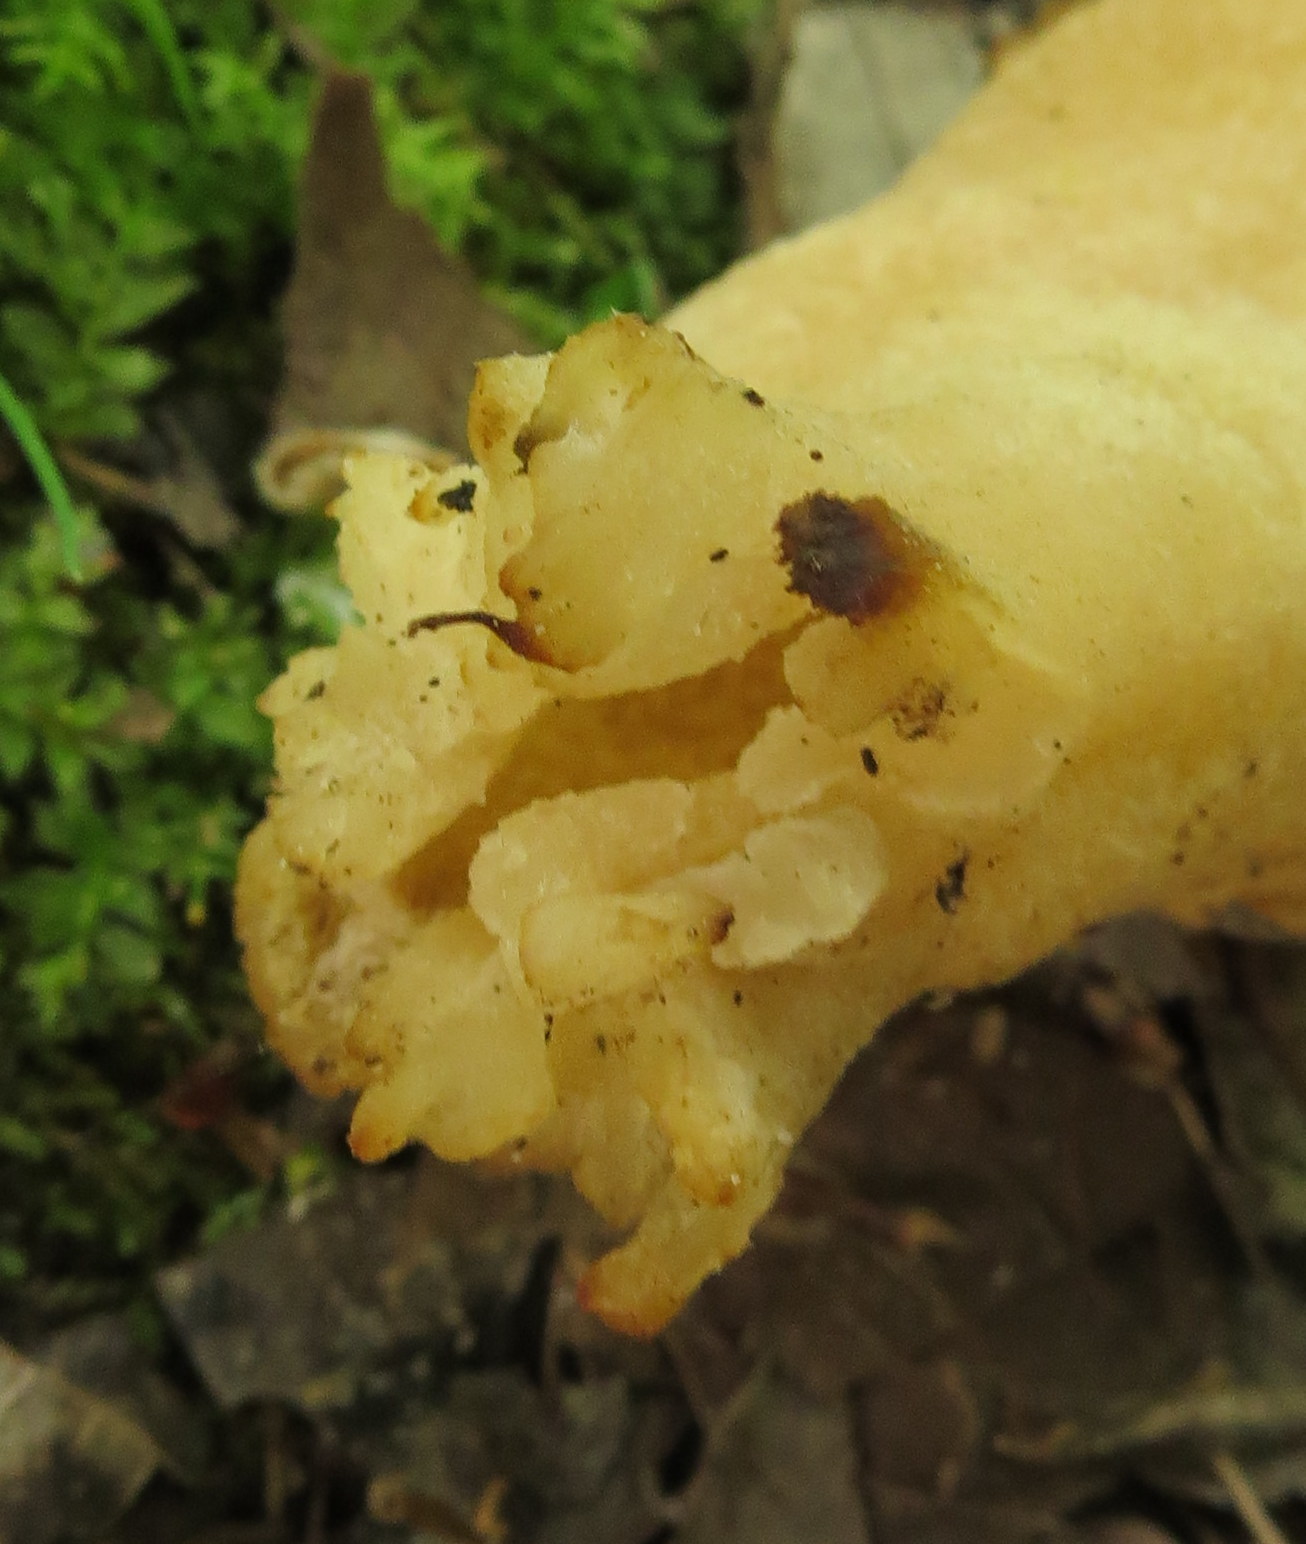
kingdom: Fungi
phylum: Ascomycota
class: Pezizomycetes
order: Pezizales
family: Morchellaceae
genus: Morchella
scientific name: Morchella angusticeps
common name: Black morel
